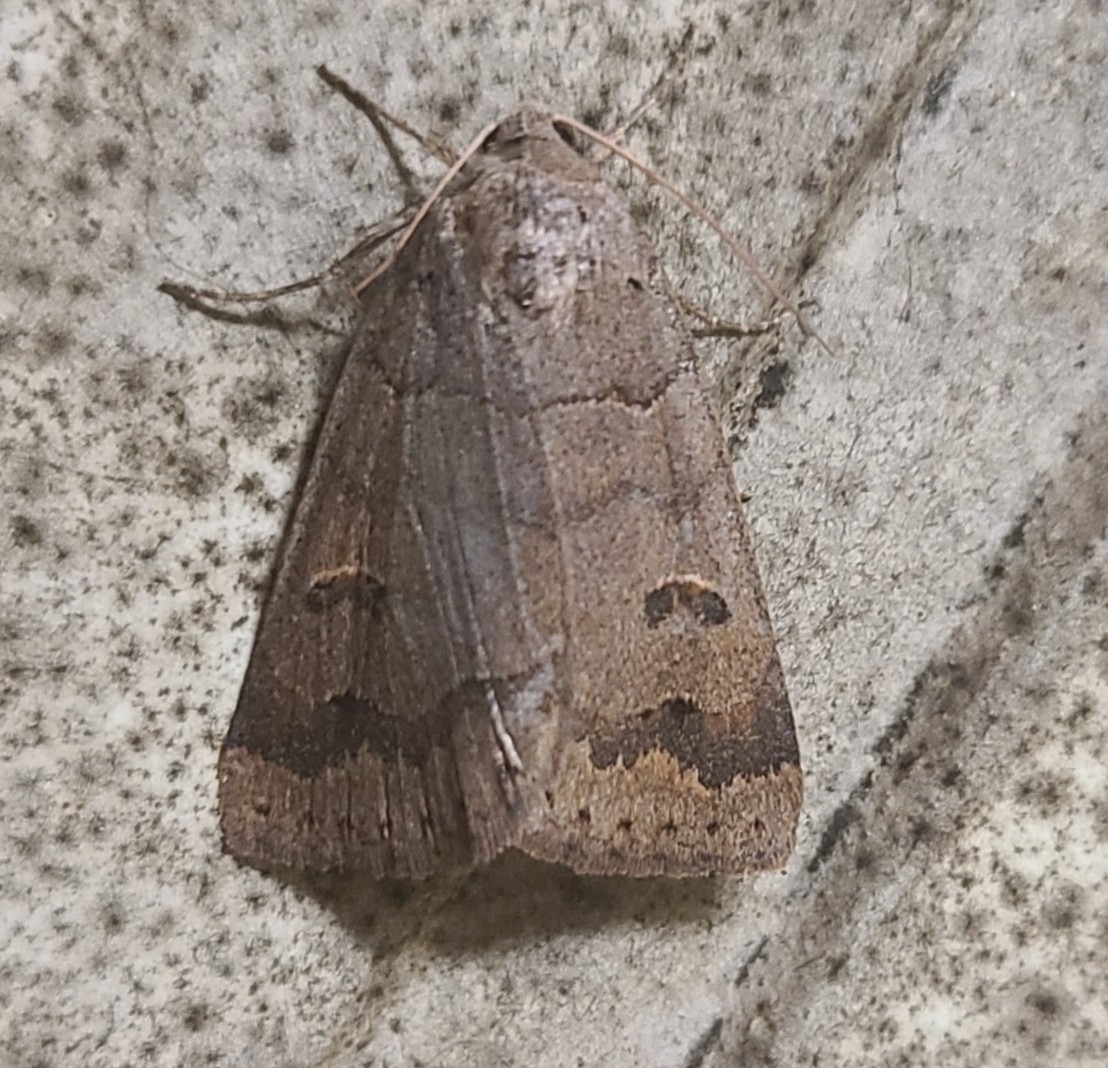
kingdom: Animalia
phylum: Arthropoda
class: Insecta
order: Lepidoptera
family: Erebidae
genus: Phoberia
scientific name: Phoberia atomaris
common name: Common oak moth
